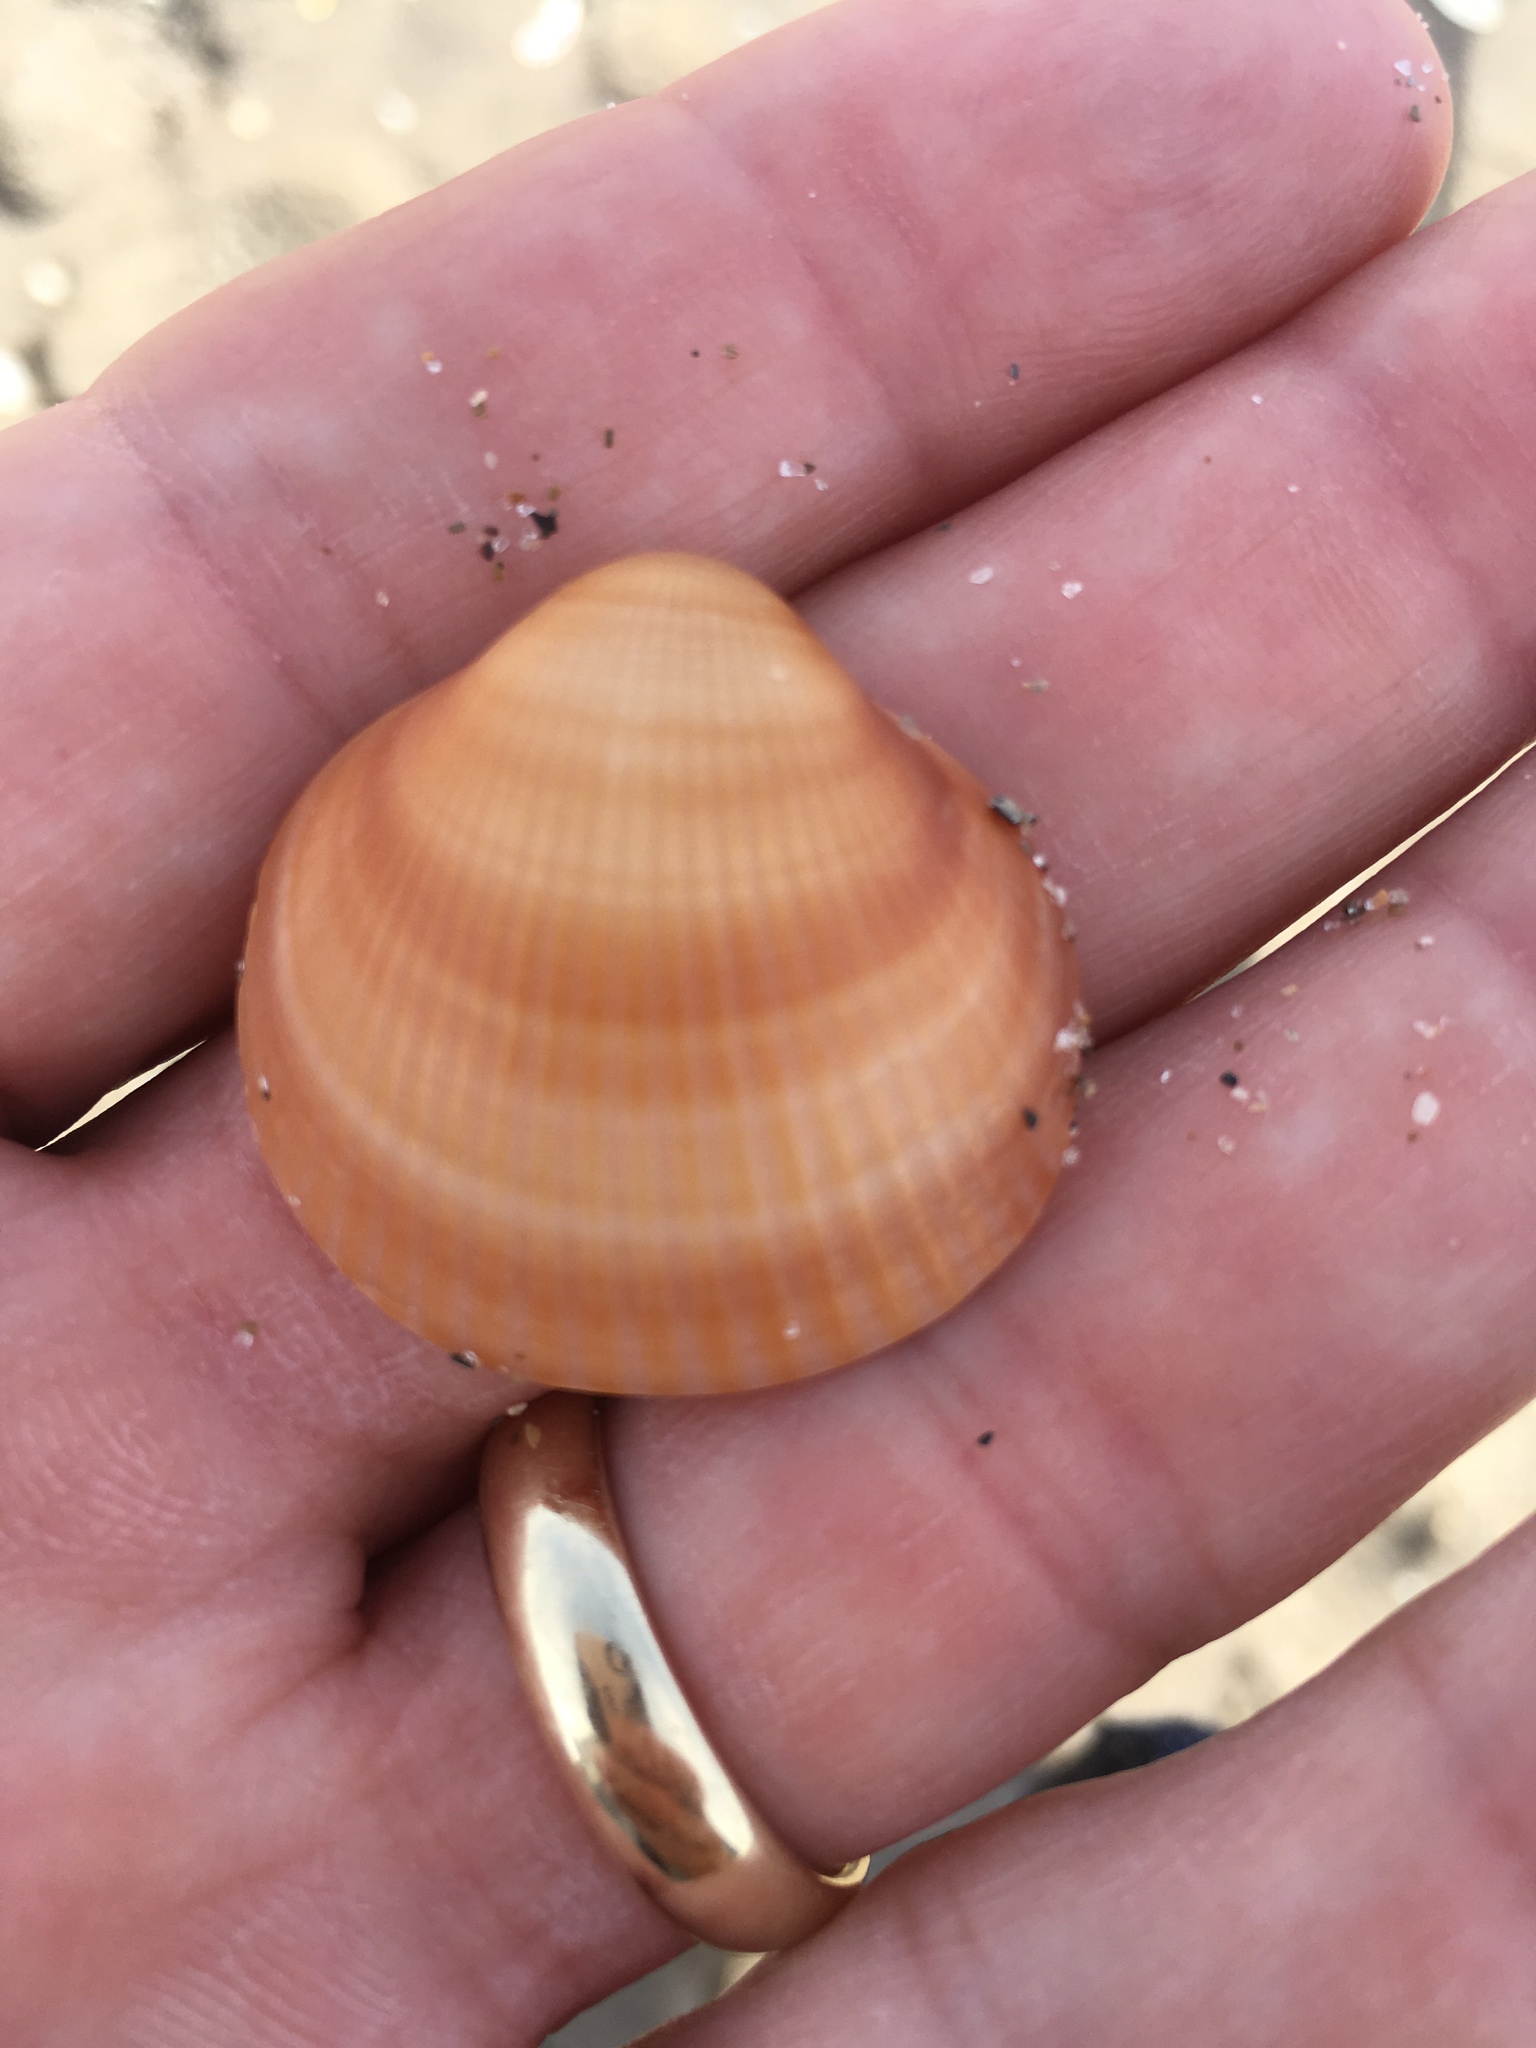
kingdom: Animalia
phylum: Mollusca
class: Bivalvia
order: Arcida
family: Glycymerididae
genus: Glycymeris
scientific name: Glycymeris spectralis
